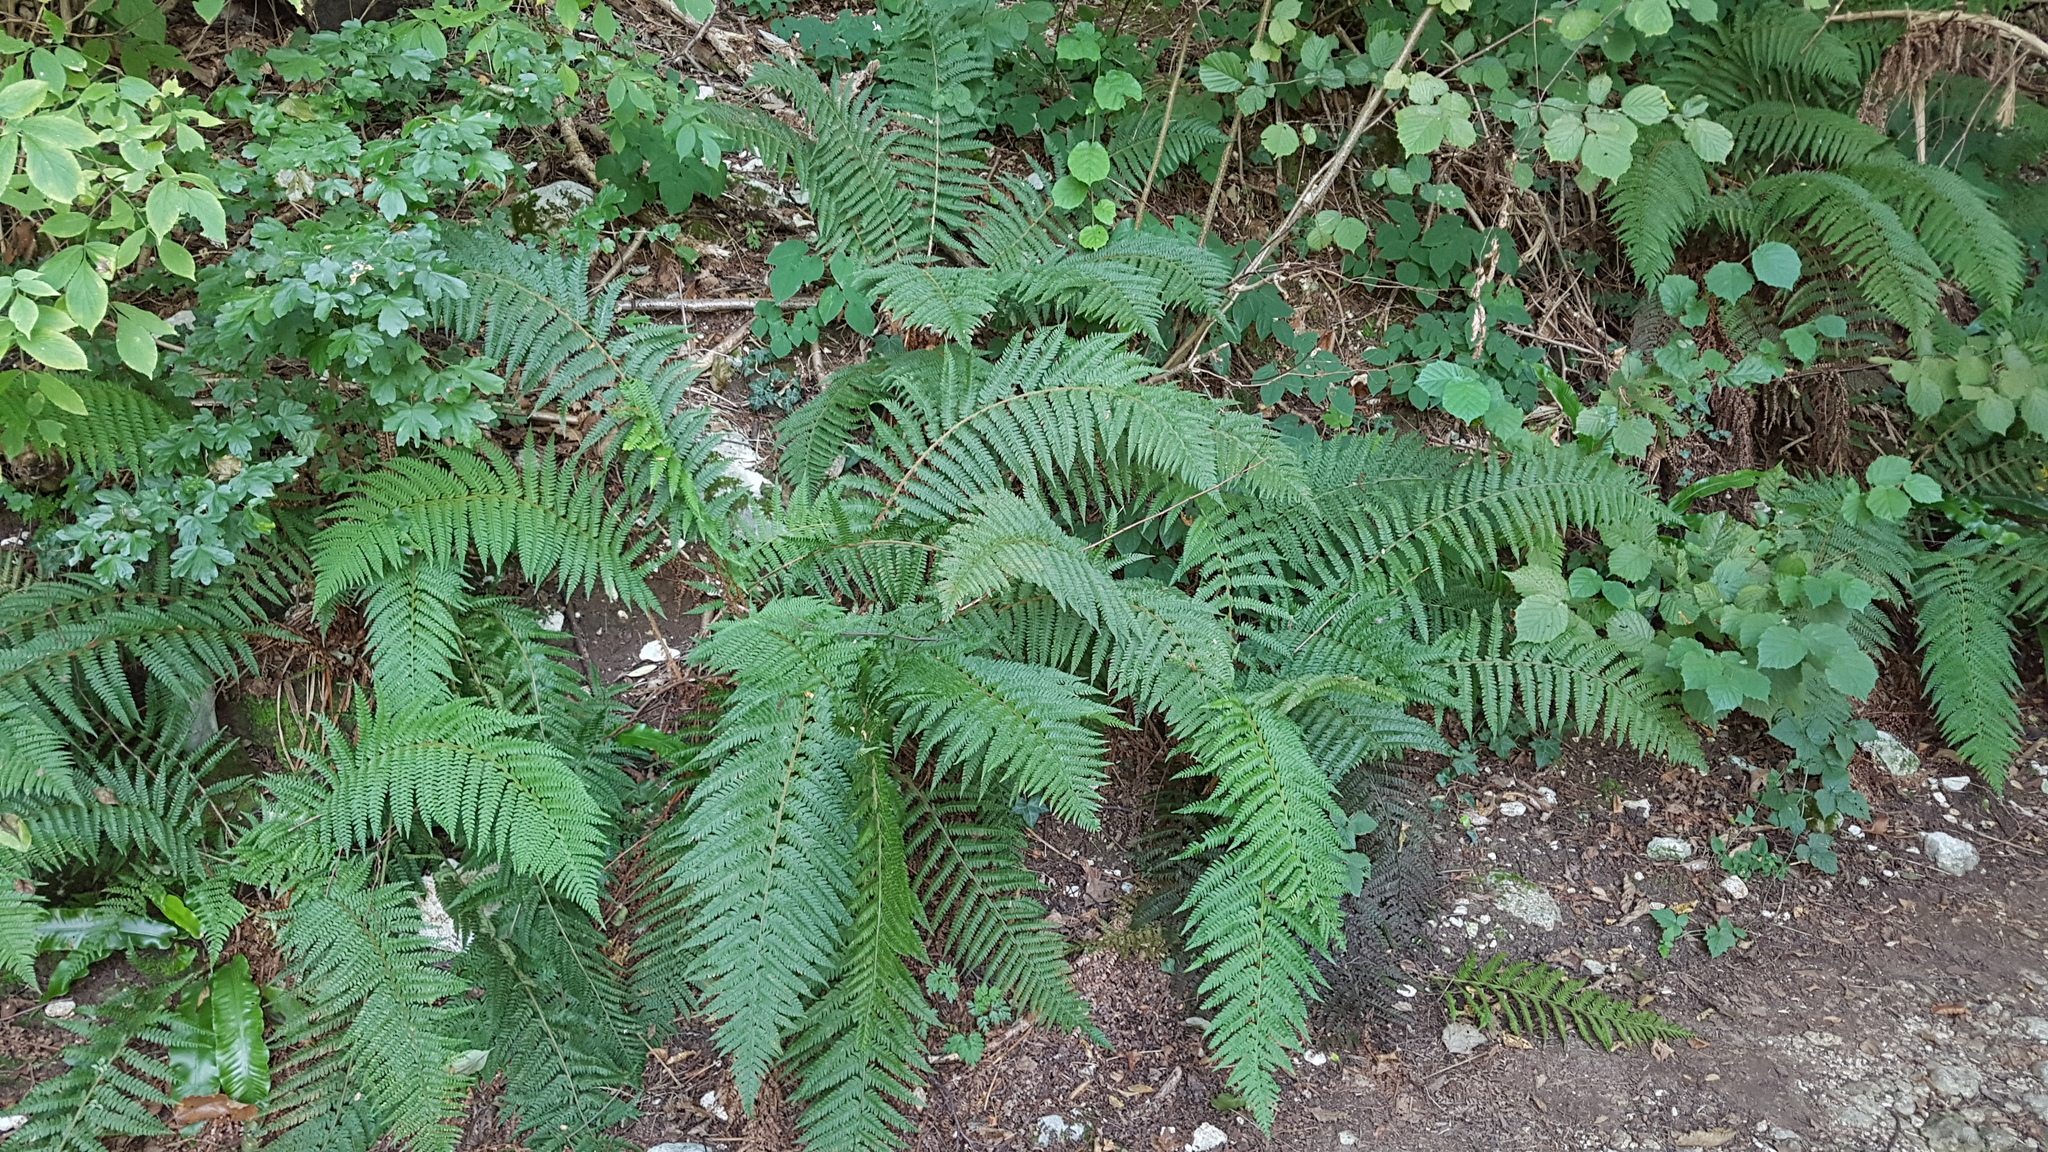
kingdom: Plantae
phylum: Tracheophyta
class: Polypodiopsida
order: Polypodiales
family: Dryopteridaceae
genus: Polystichum
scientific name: Polystichum setiferum
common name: Soft shield-fern
